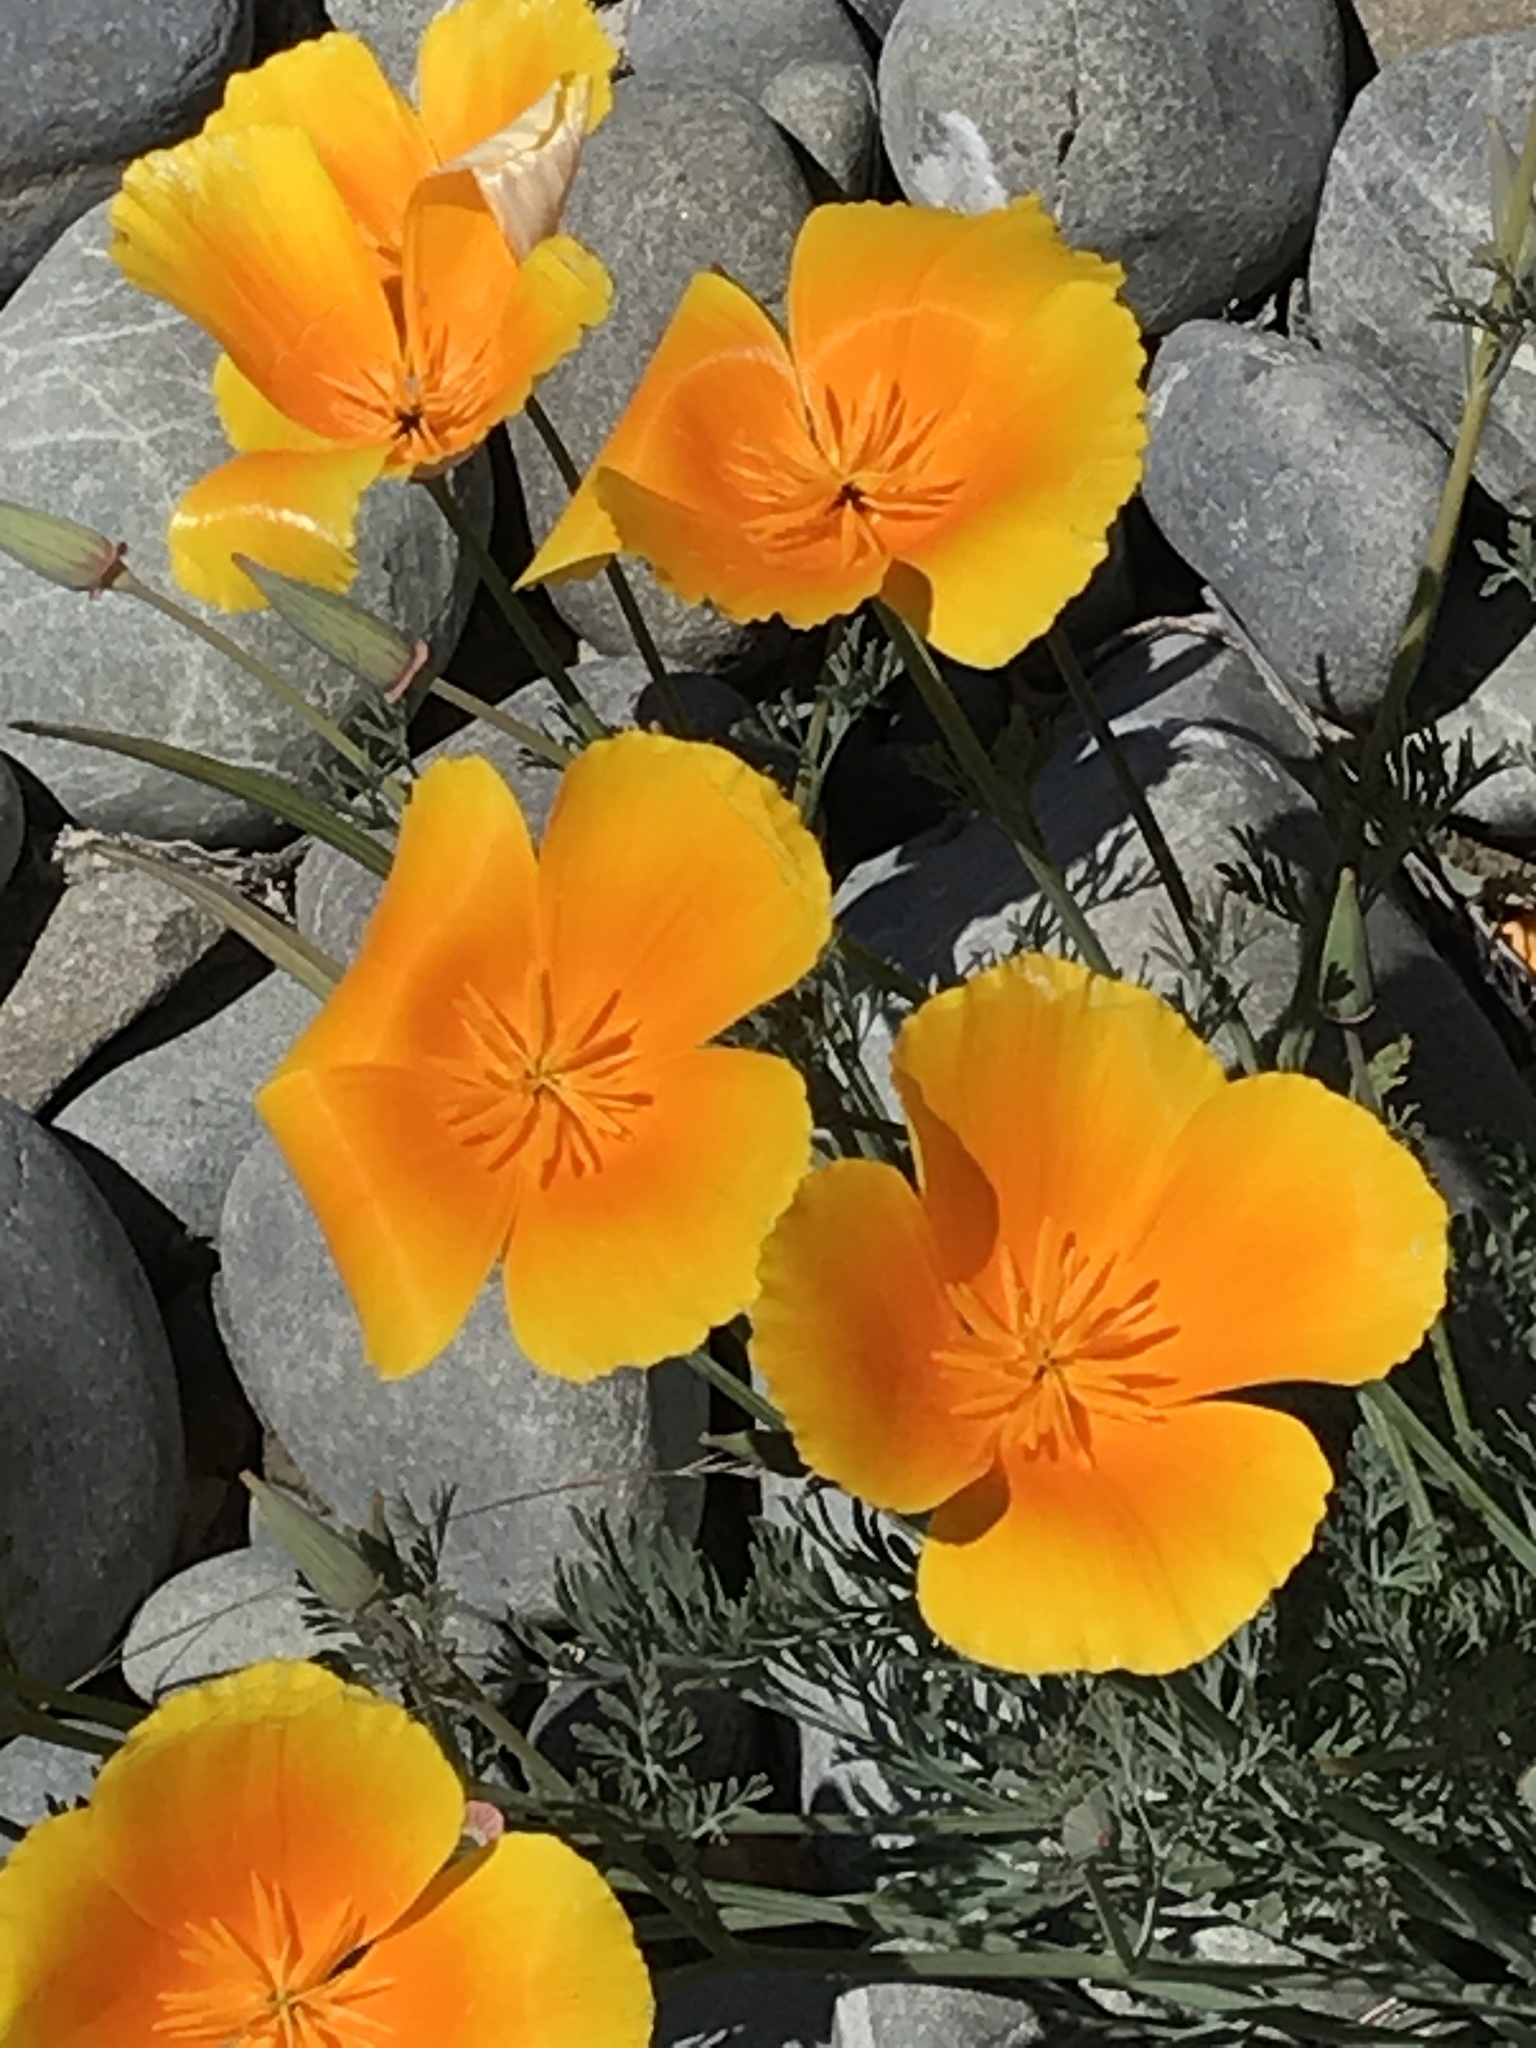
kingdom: Plantae
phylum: Tracheophyta
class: Magnoliopsida
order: Ranunculales
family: Papaveraceae
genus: Eschscholzia
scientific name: Eschscholzia californica
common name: California poppy
